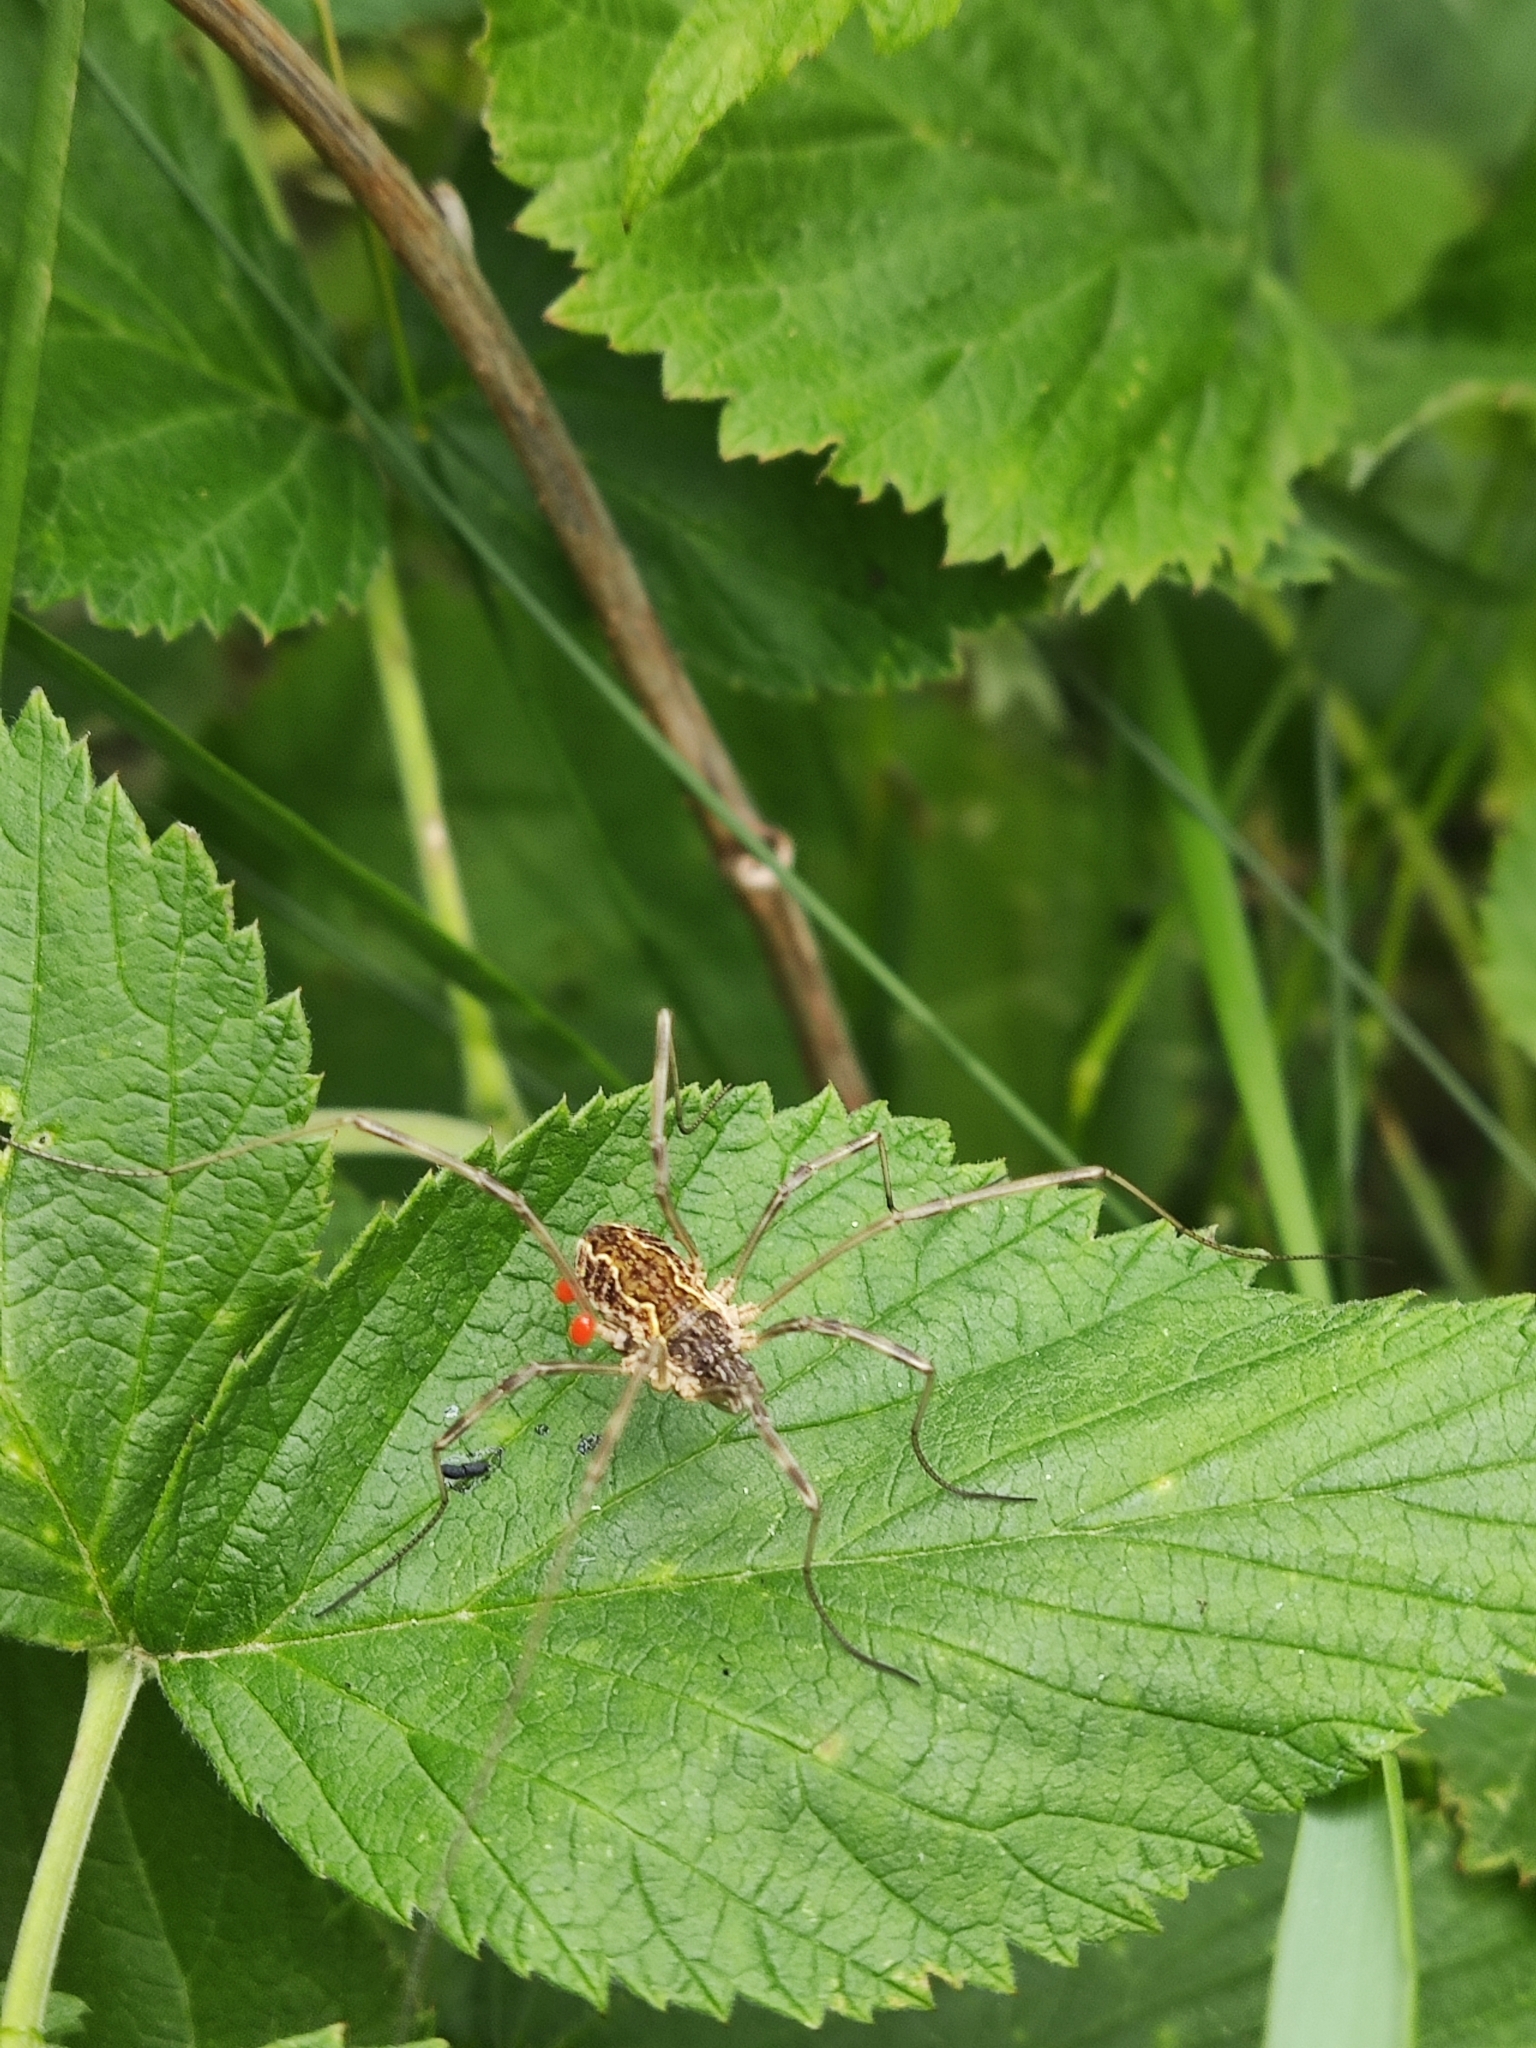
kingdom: Animalia
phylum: Arthropoda
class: Arachnida
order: Opiliones
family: Phalangiidae
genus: Mitopus
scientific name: Mitopus morio
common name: Saddleback harvestman
